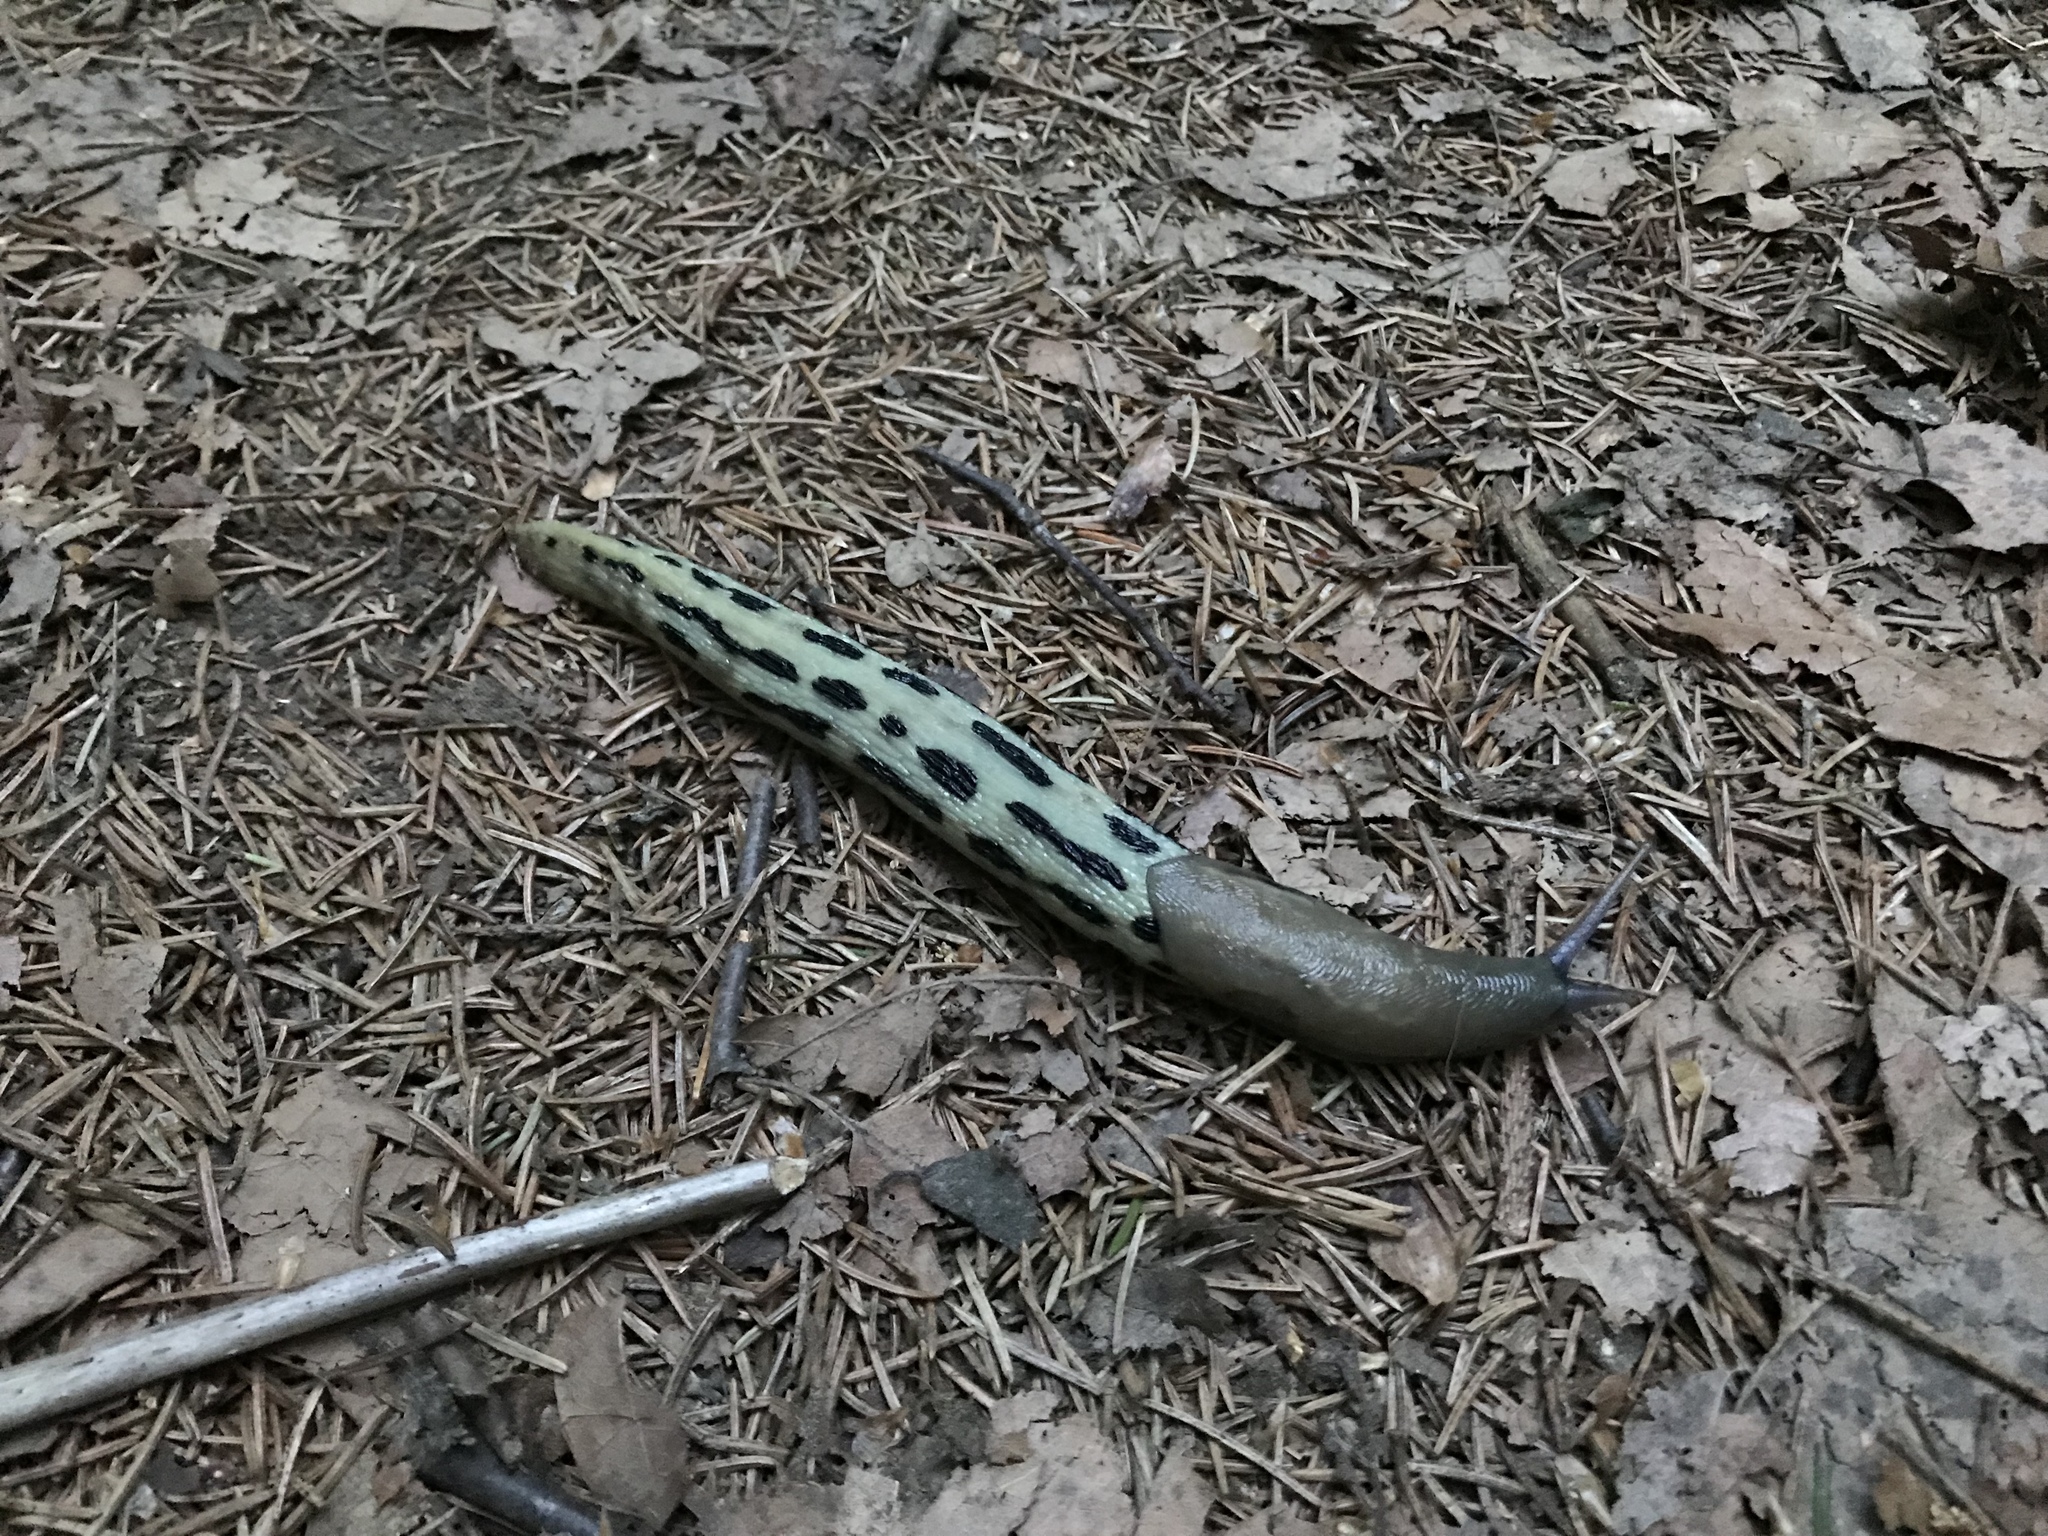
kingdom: Animalia
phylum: Mollusca
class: Gastropoda
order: Stylommatophora
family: Limacidae
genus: Limax
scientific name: Limax cinereoniger
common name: Ash-black slug
